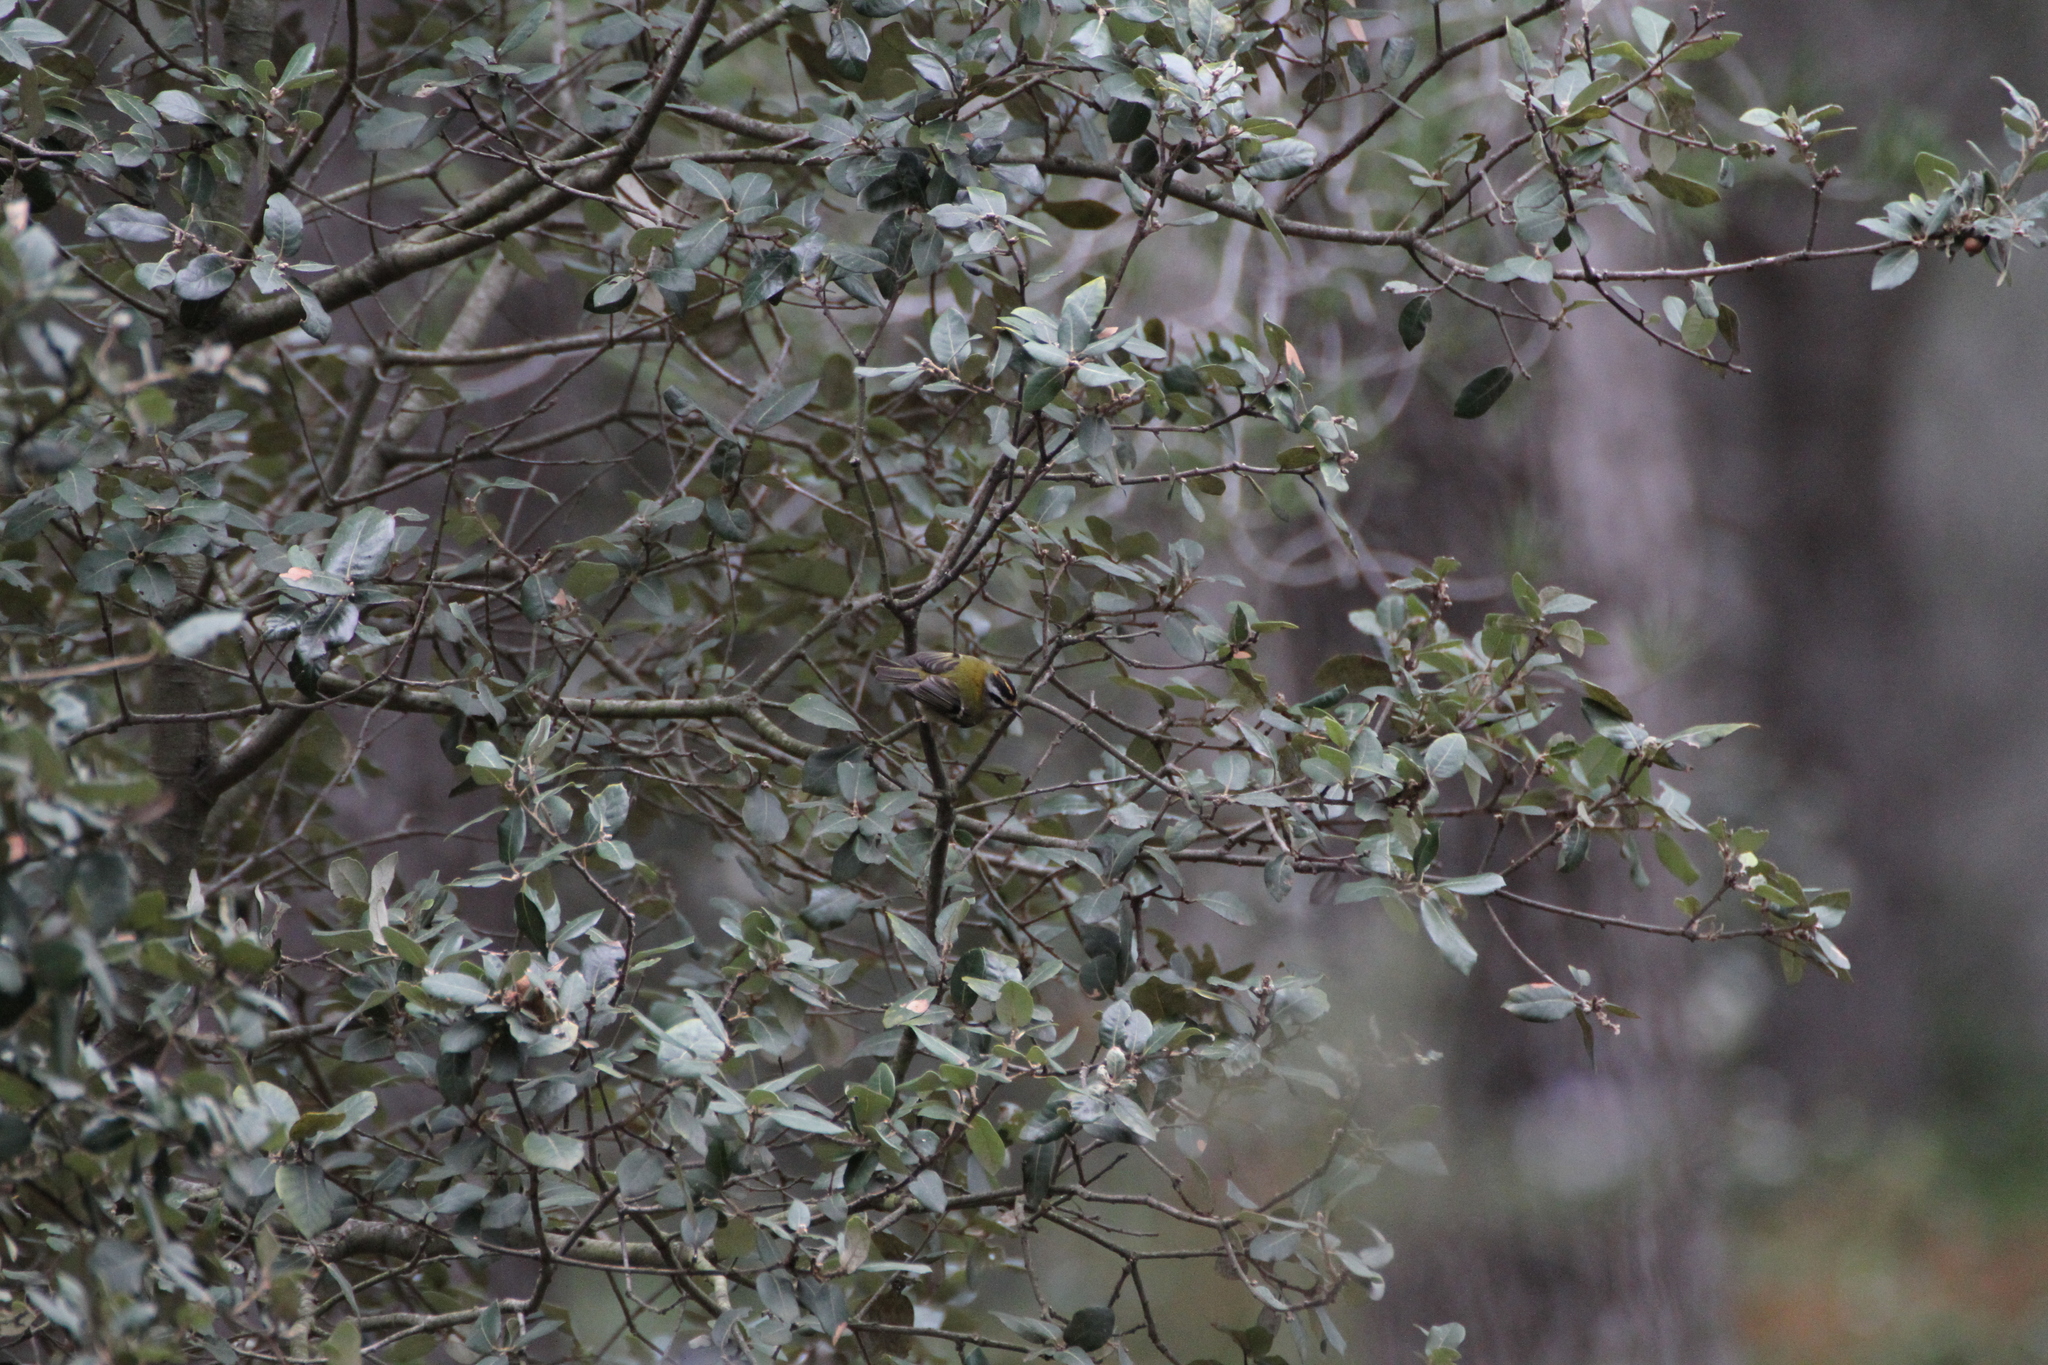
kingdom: Animalia
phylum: Chordata
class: Aves
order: Passeriformes
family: Regulidae
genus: Regulus
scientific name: Regulus ignicapilla
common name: Firecrest
